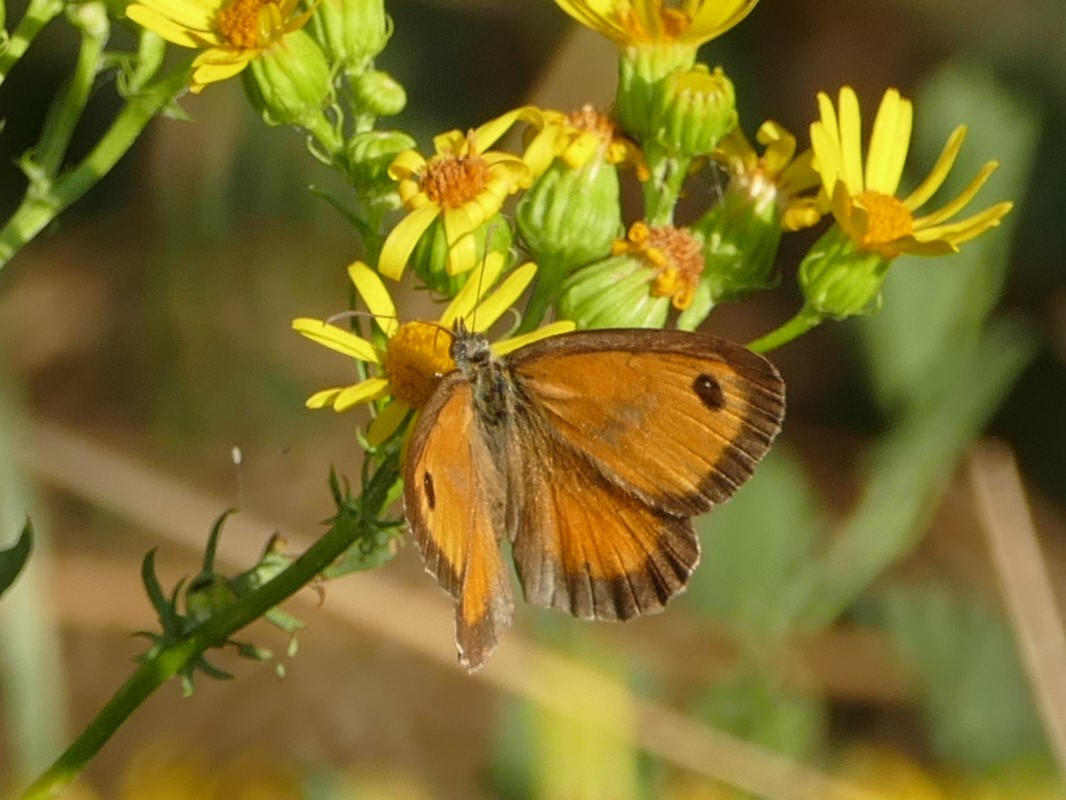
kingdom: Animalia
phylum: Arthropoda
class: Insecta
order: Lepidoptera
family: Nymphalidae
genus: Pyronia
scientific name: Pyronia tithonus
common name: Gatekeeper
